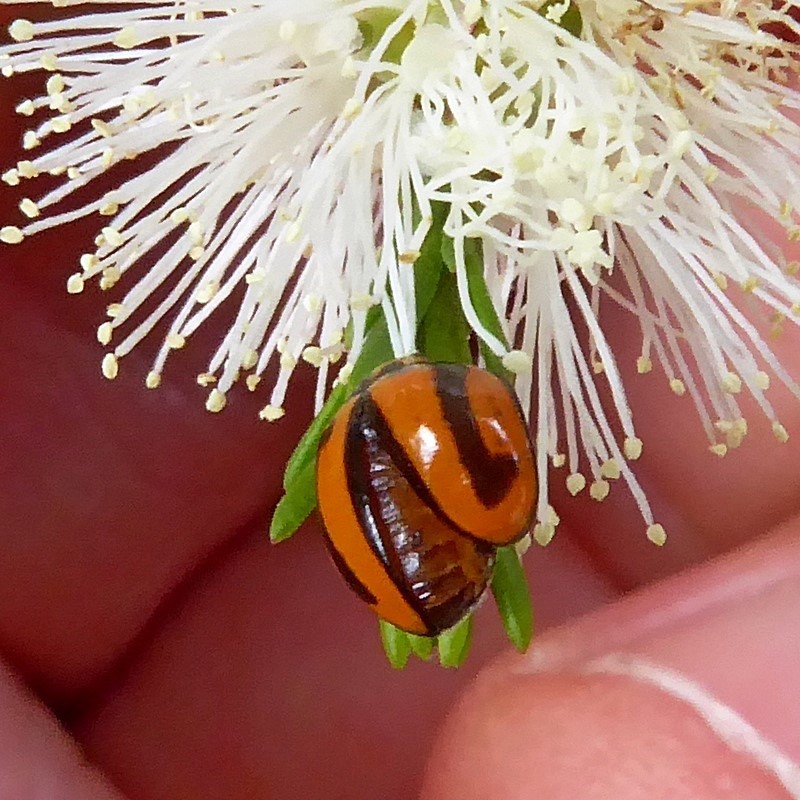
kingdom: Animalia
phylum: Arthropoda
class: Insecta
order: Coleoptera
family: Coccinellidae
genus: Micraspis
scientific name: Micraspis frenata
